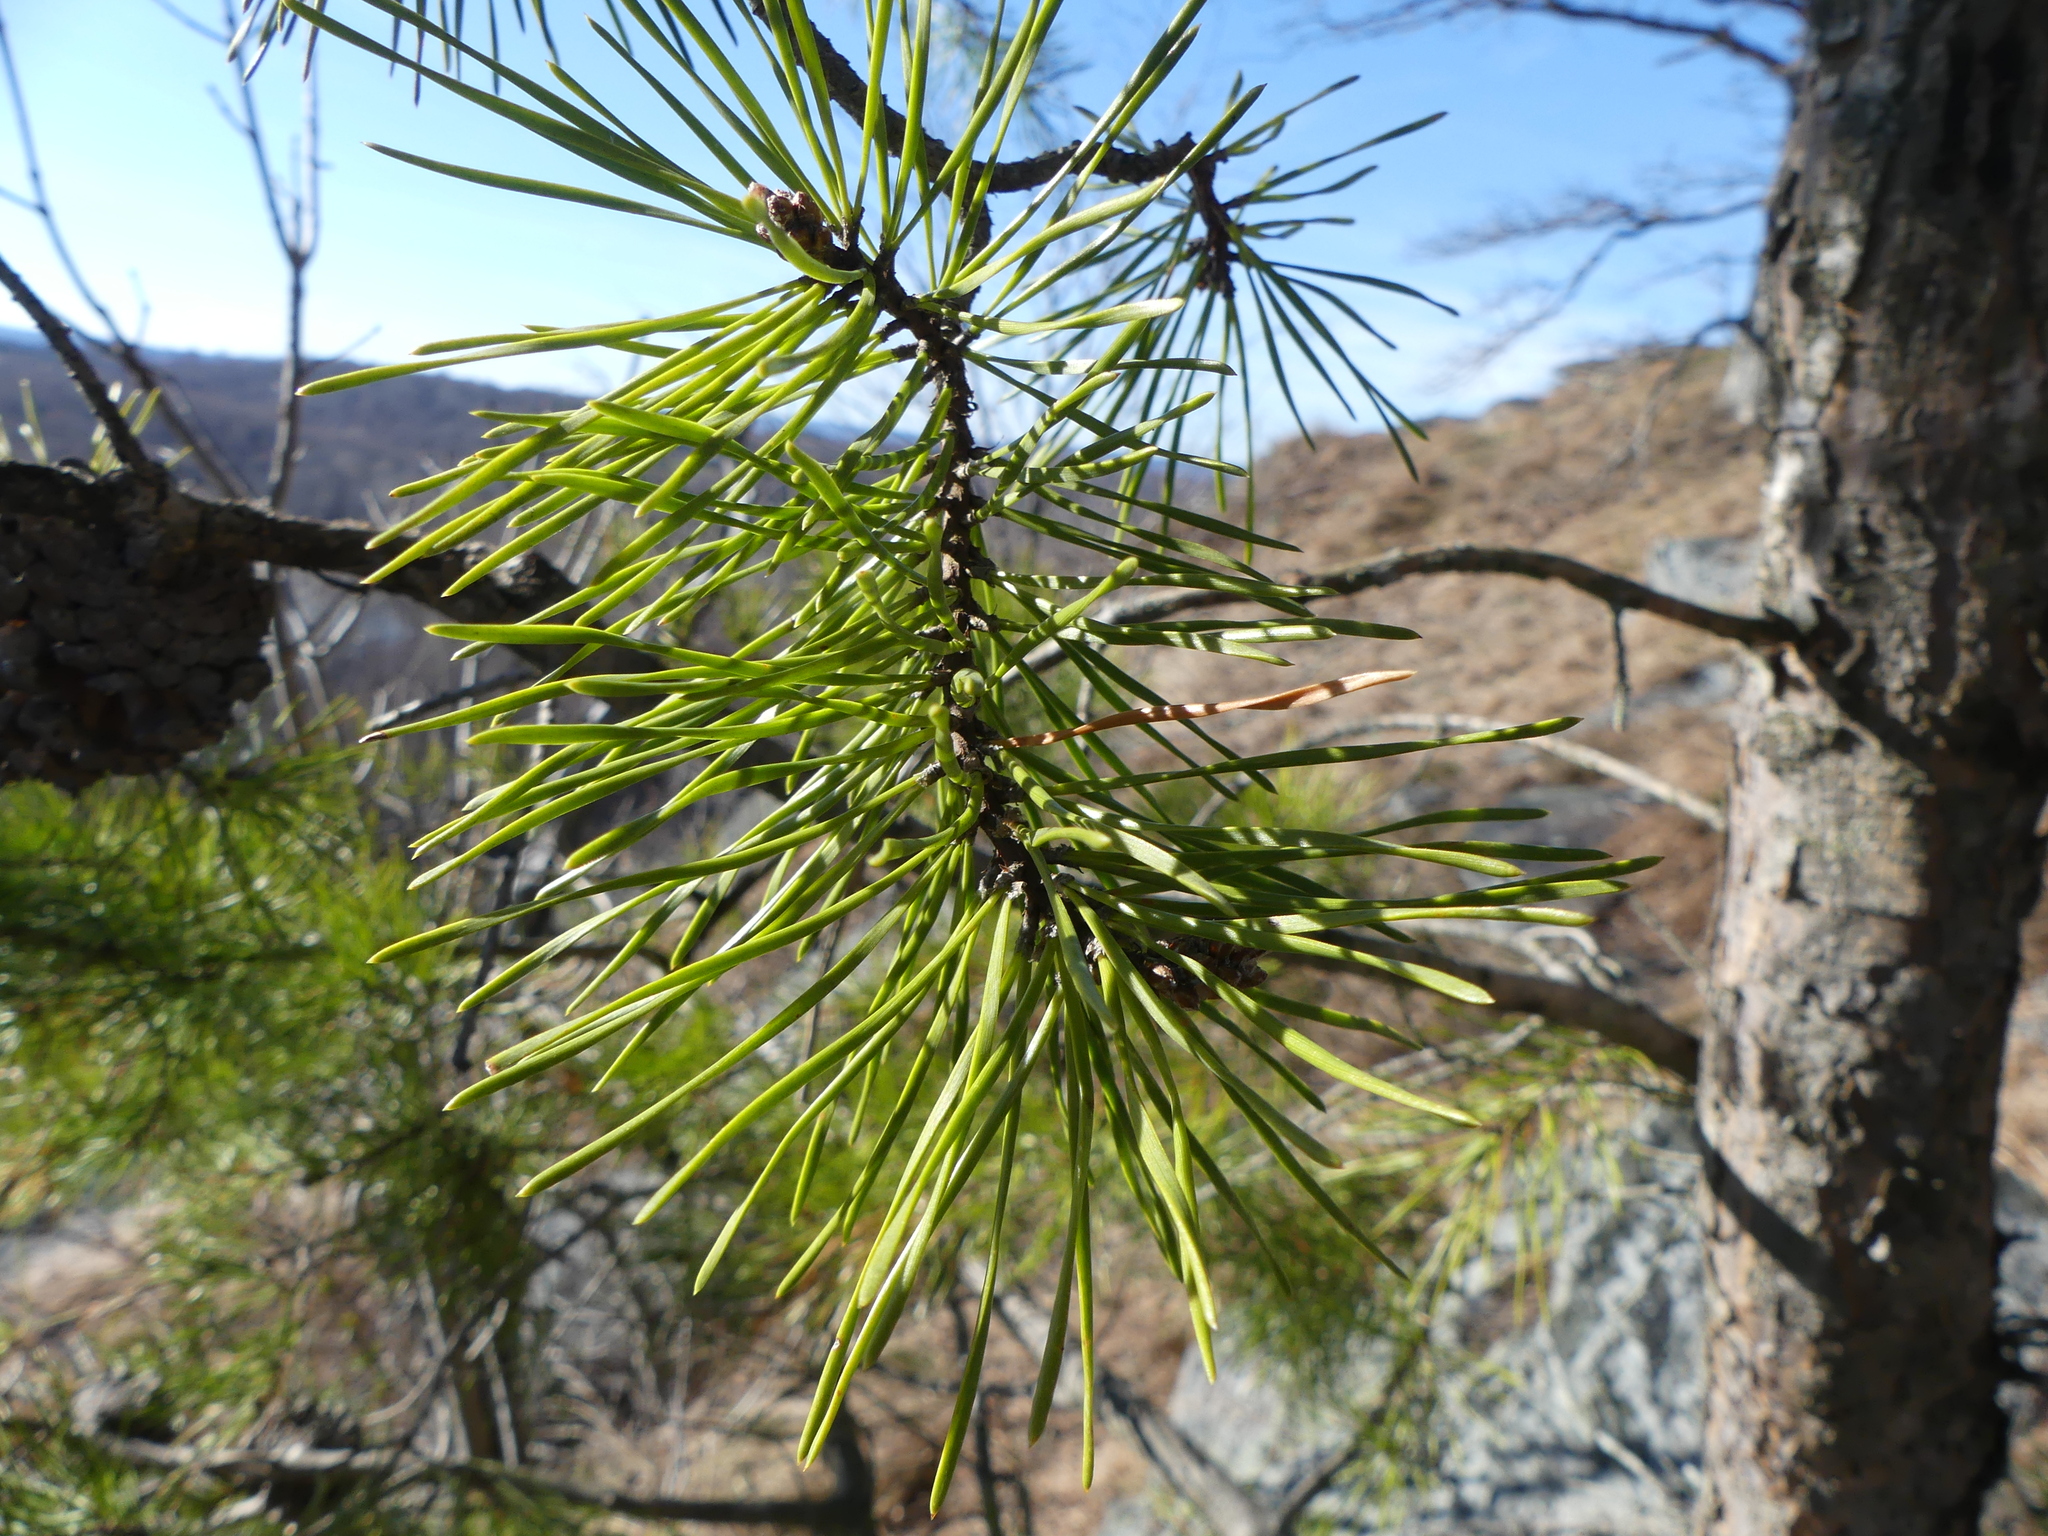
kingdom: Plantae
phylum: Tracheophyta
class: Pinopsida
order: Pinales
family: Pinaceae
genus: Pinus
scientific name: Pinus virginiana
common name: Scrub pine
